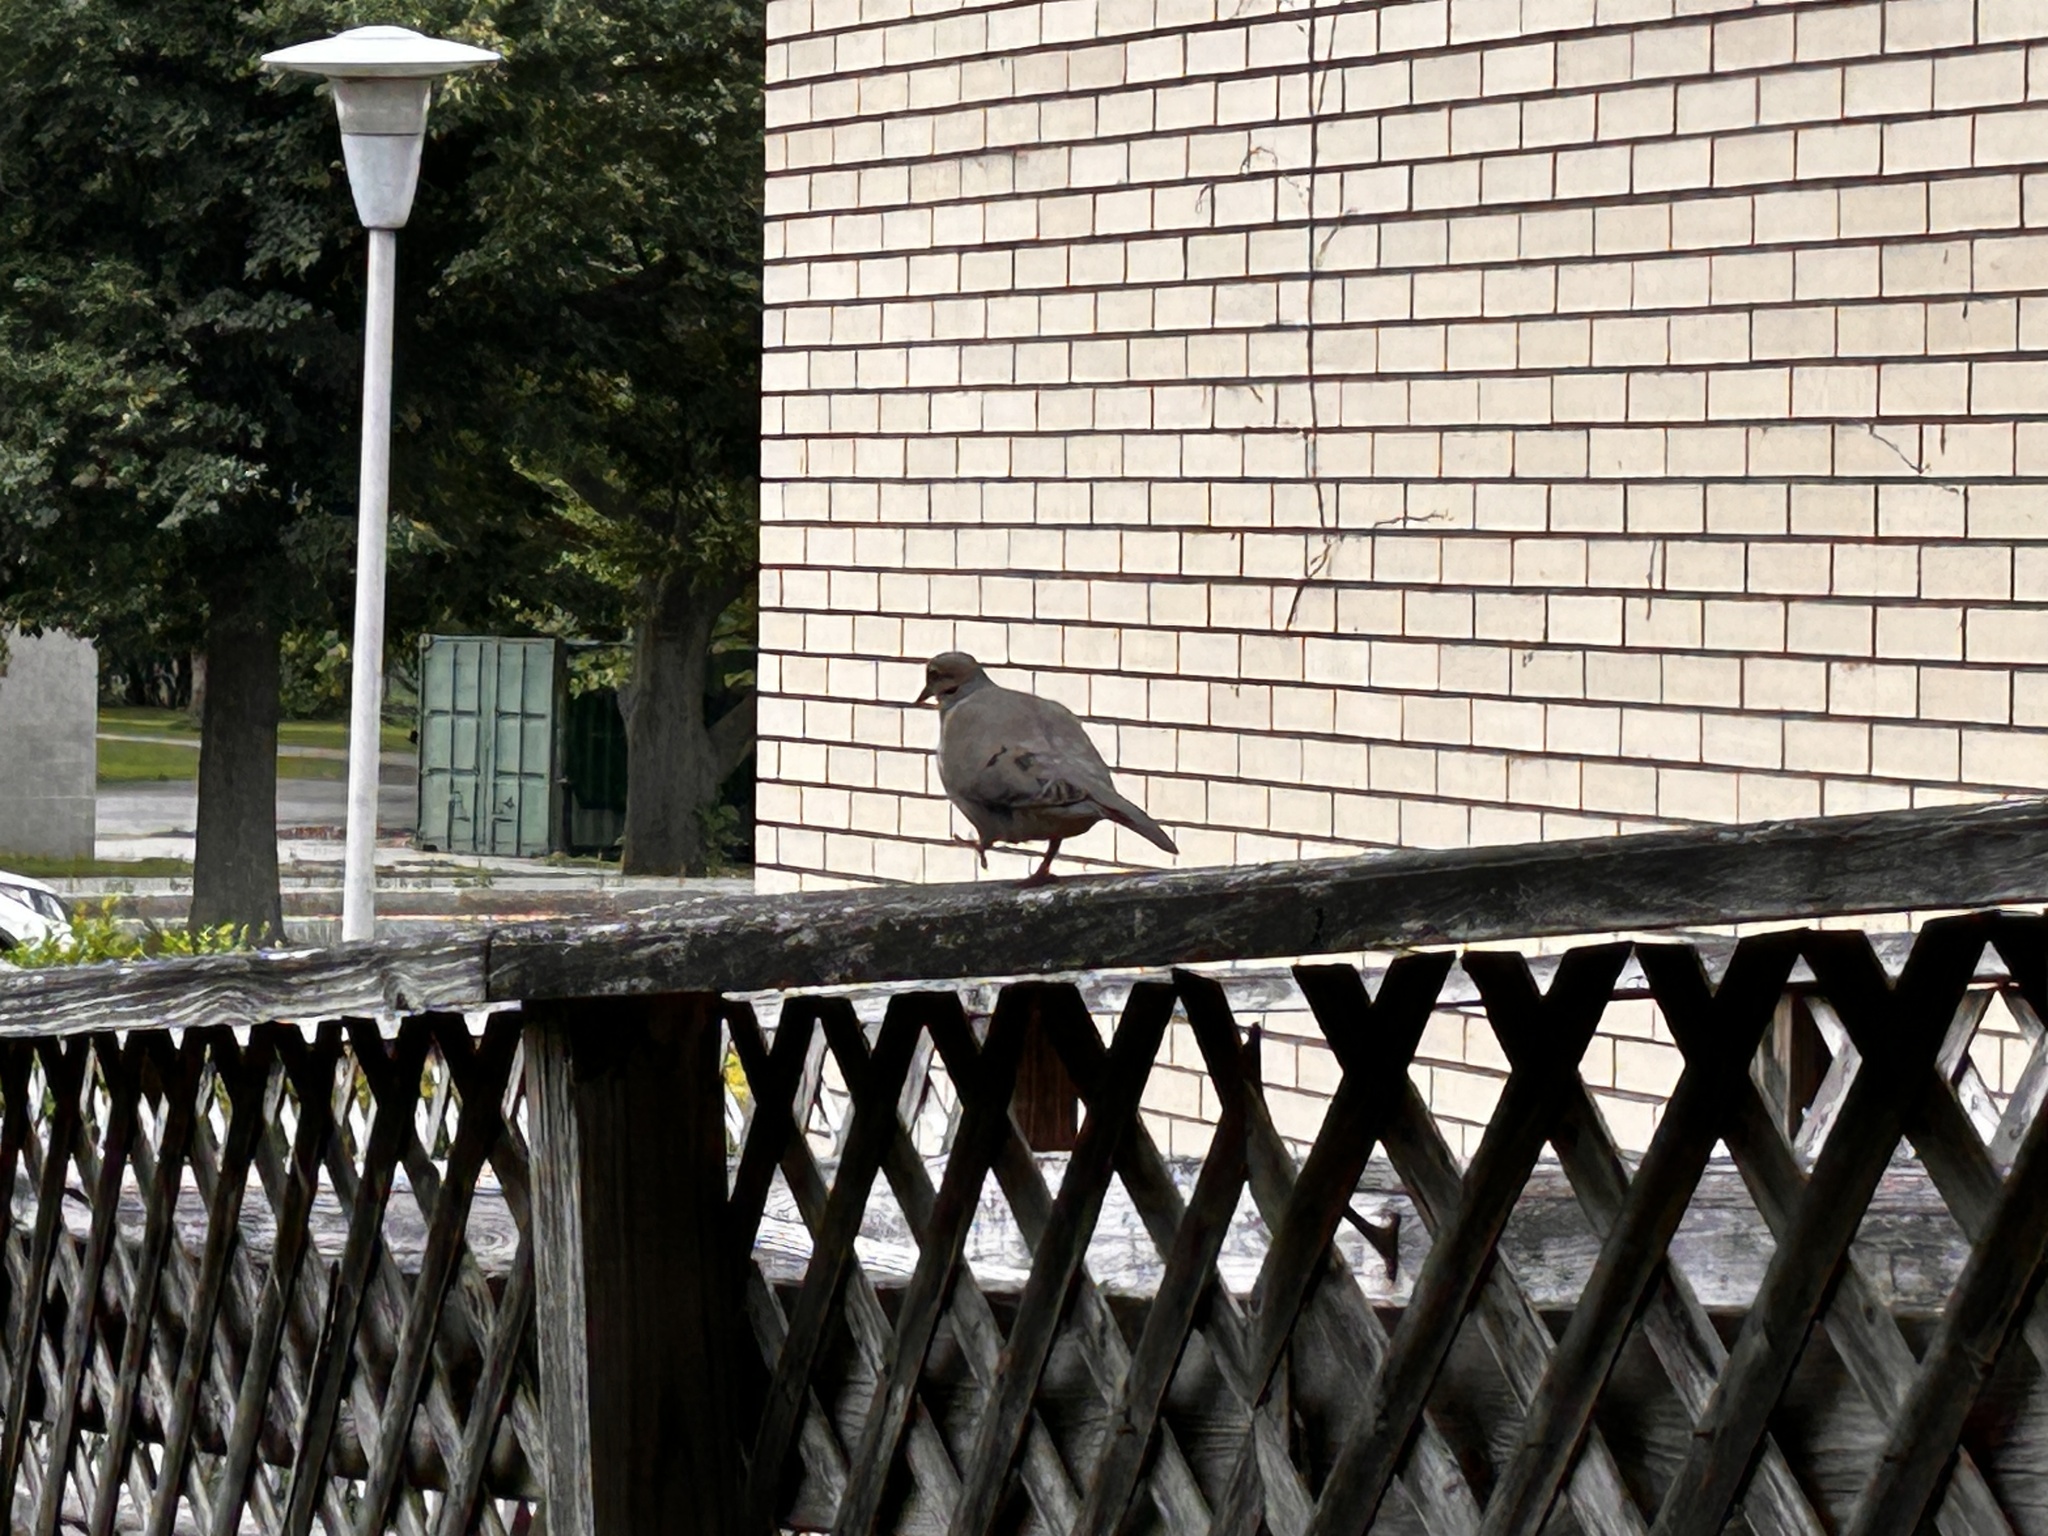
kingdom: Animalia
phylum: Chordata
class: Aves
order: Columbiformes
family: Columbidae
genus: Zenaida
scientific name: Zenaida macroura
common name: Mourning dove
